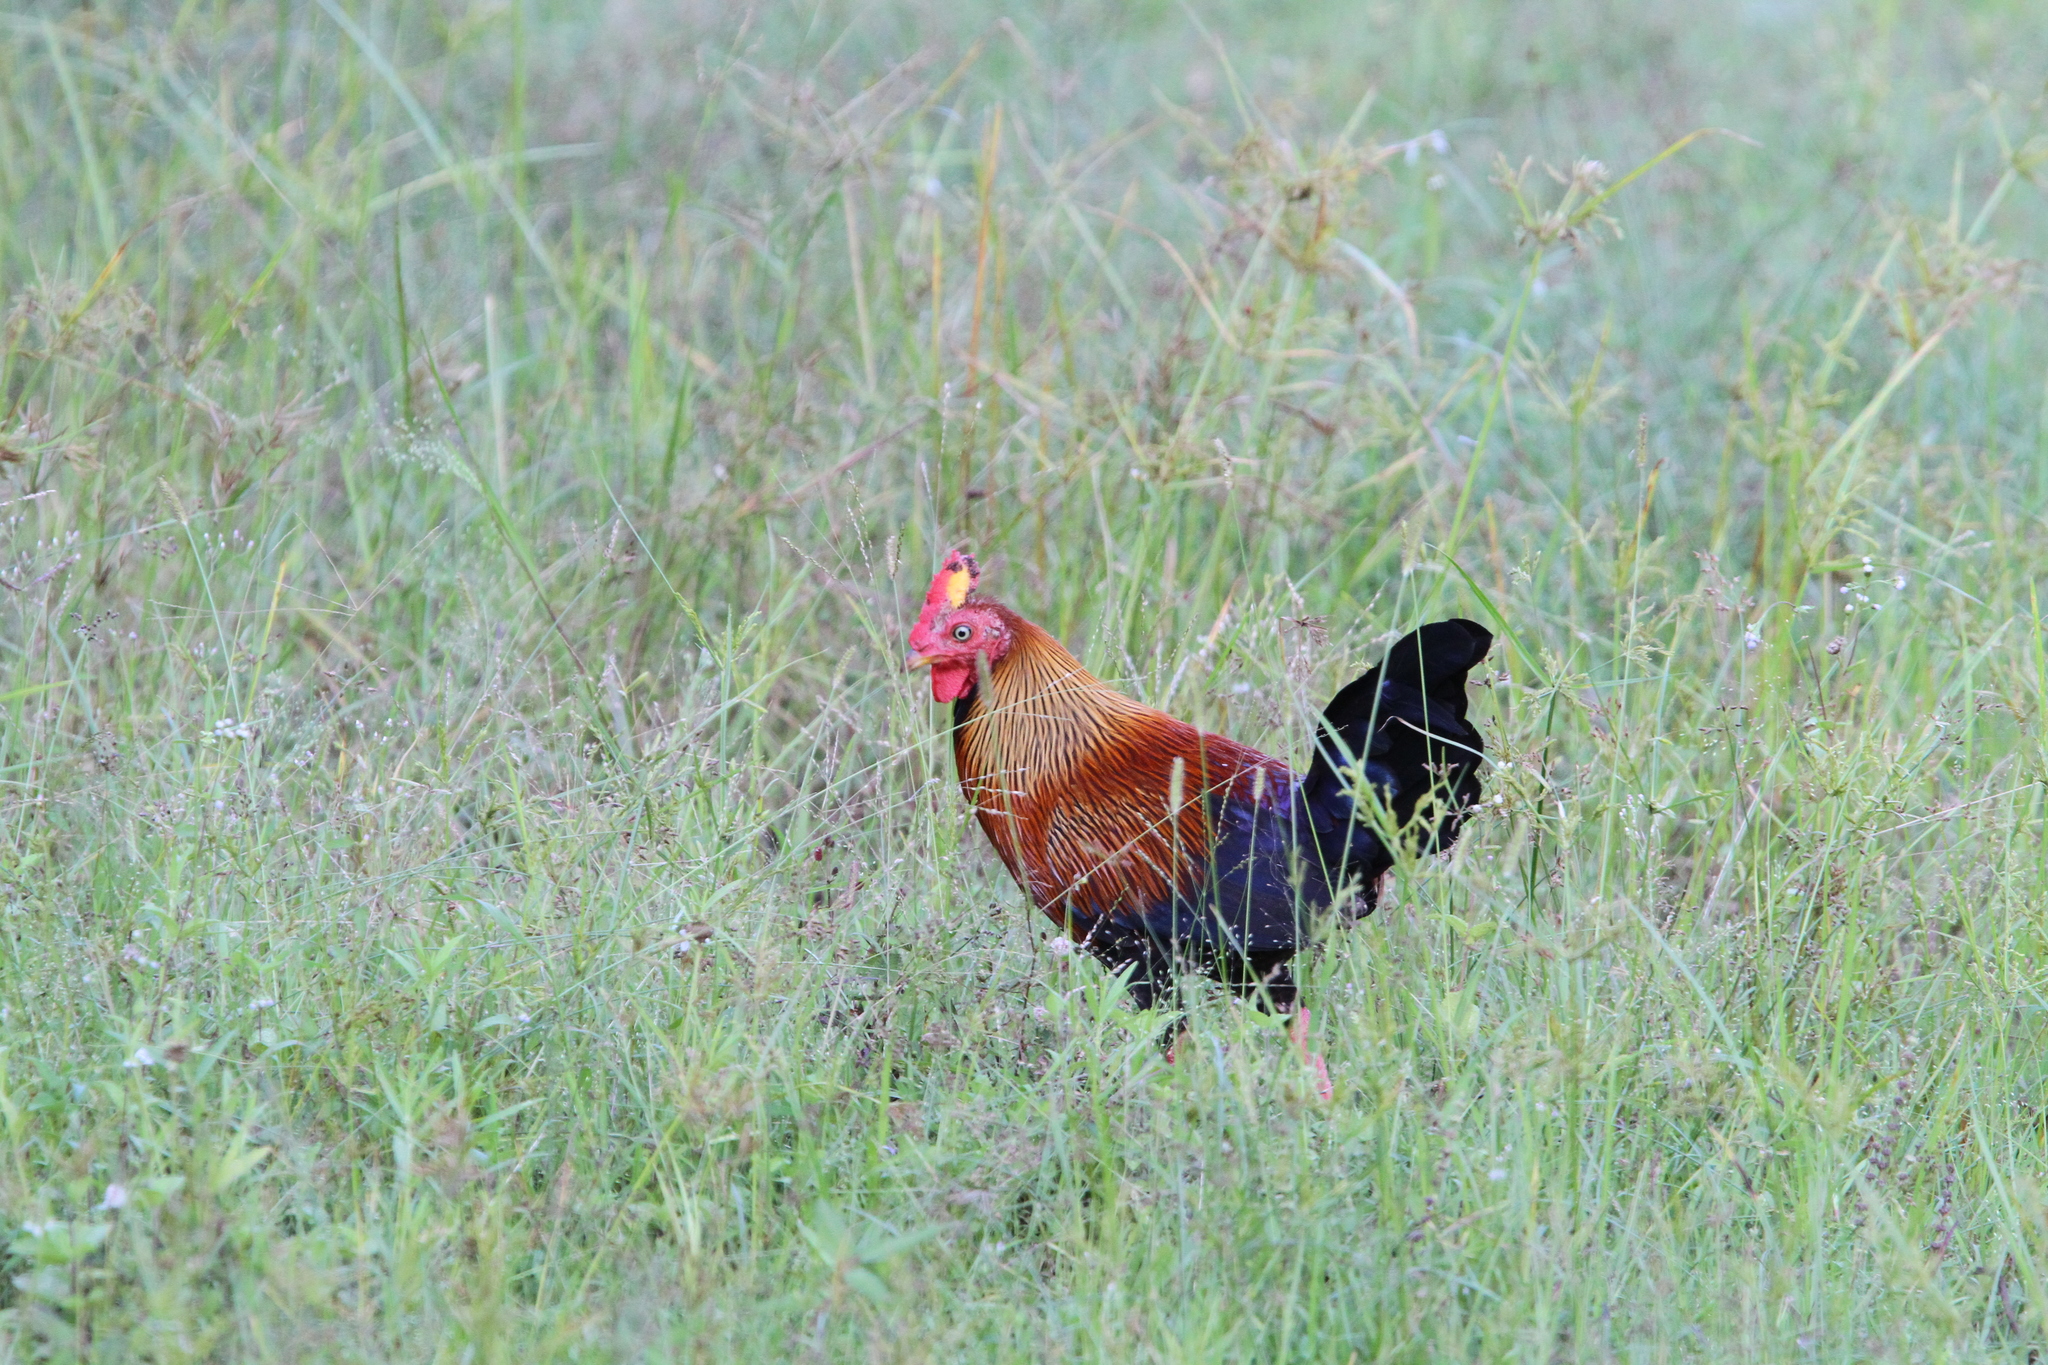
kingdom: Animalia
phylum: Chordata
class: Aves
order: Galliformes
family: Phasianidae
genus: Gallus
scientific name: Gallus lafayettii
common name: Sri lanka junglefowl
